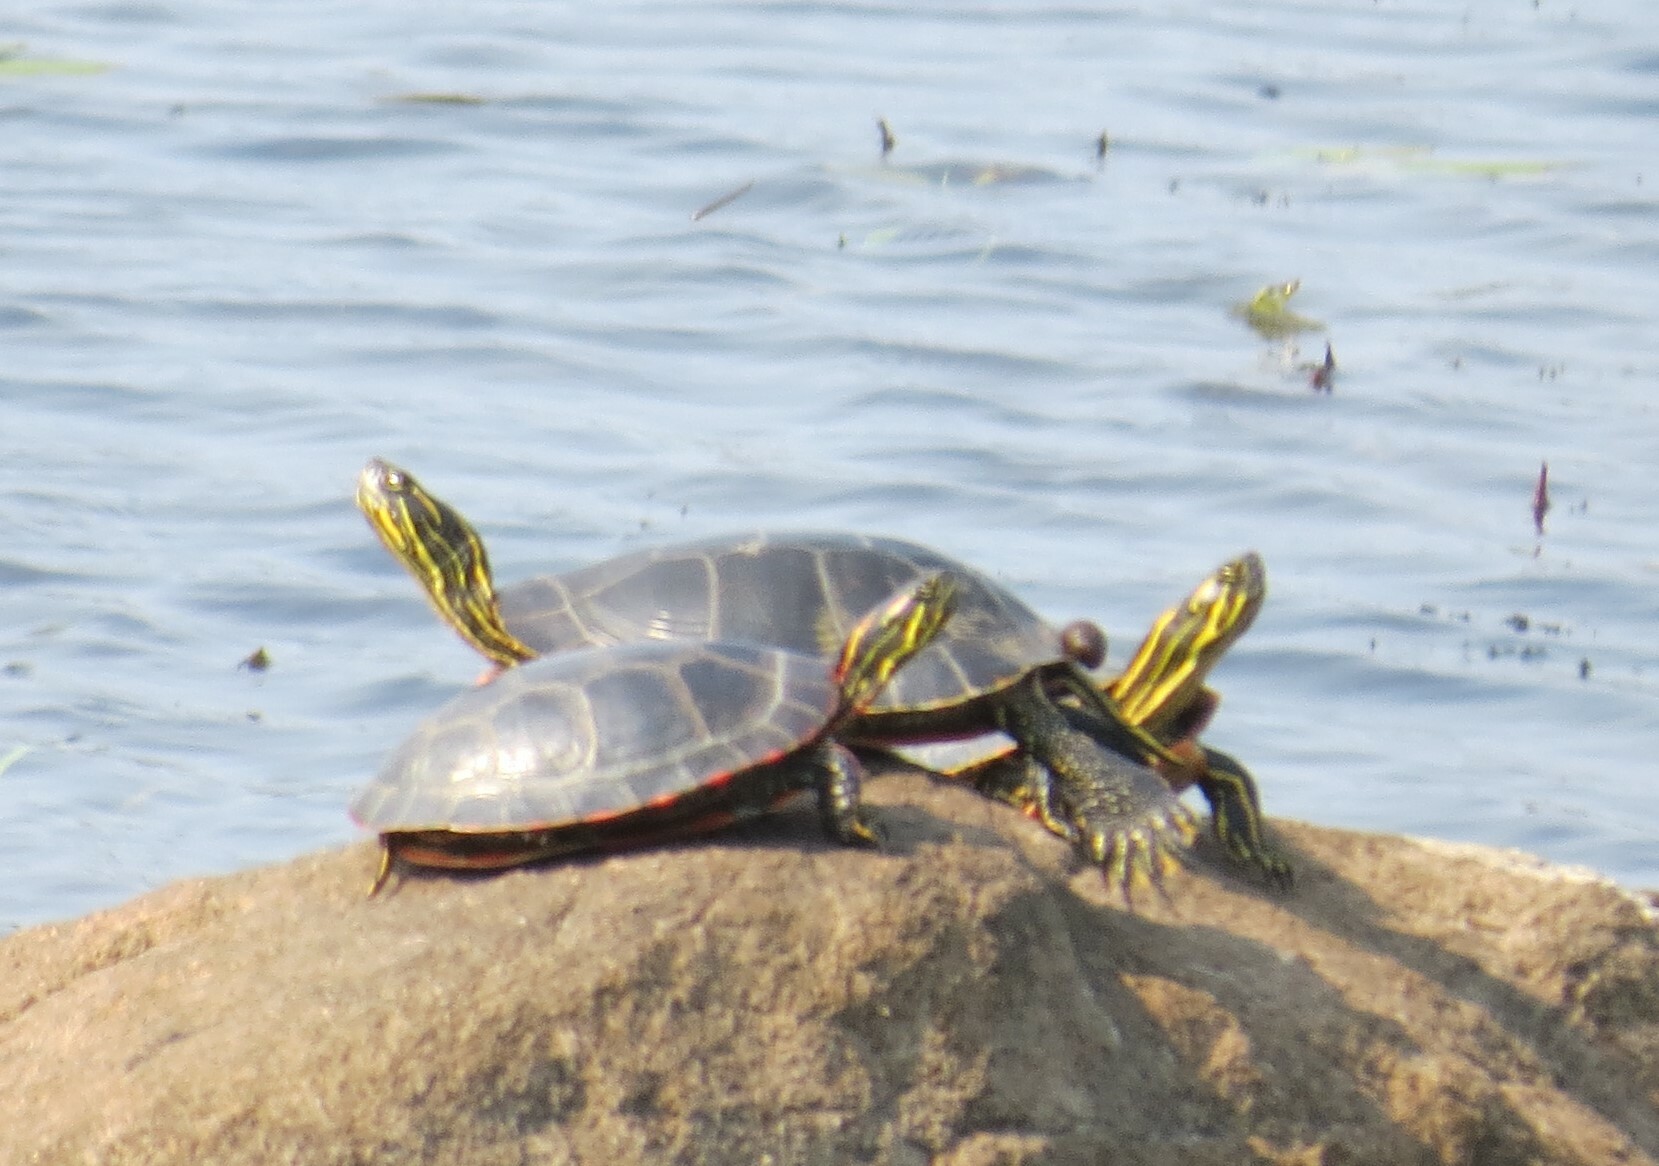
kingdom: Animalia
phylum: Chordata
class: Testudines
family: Emydidae
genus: Chrysemys
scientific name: Chrysemys picta
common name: Painted turtle
